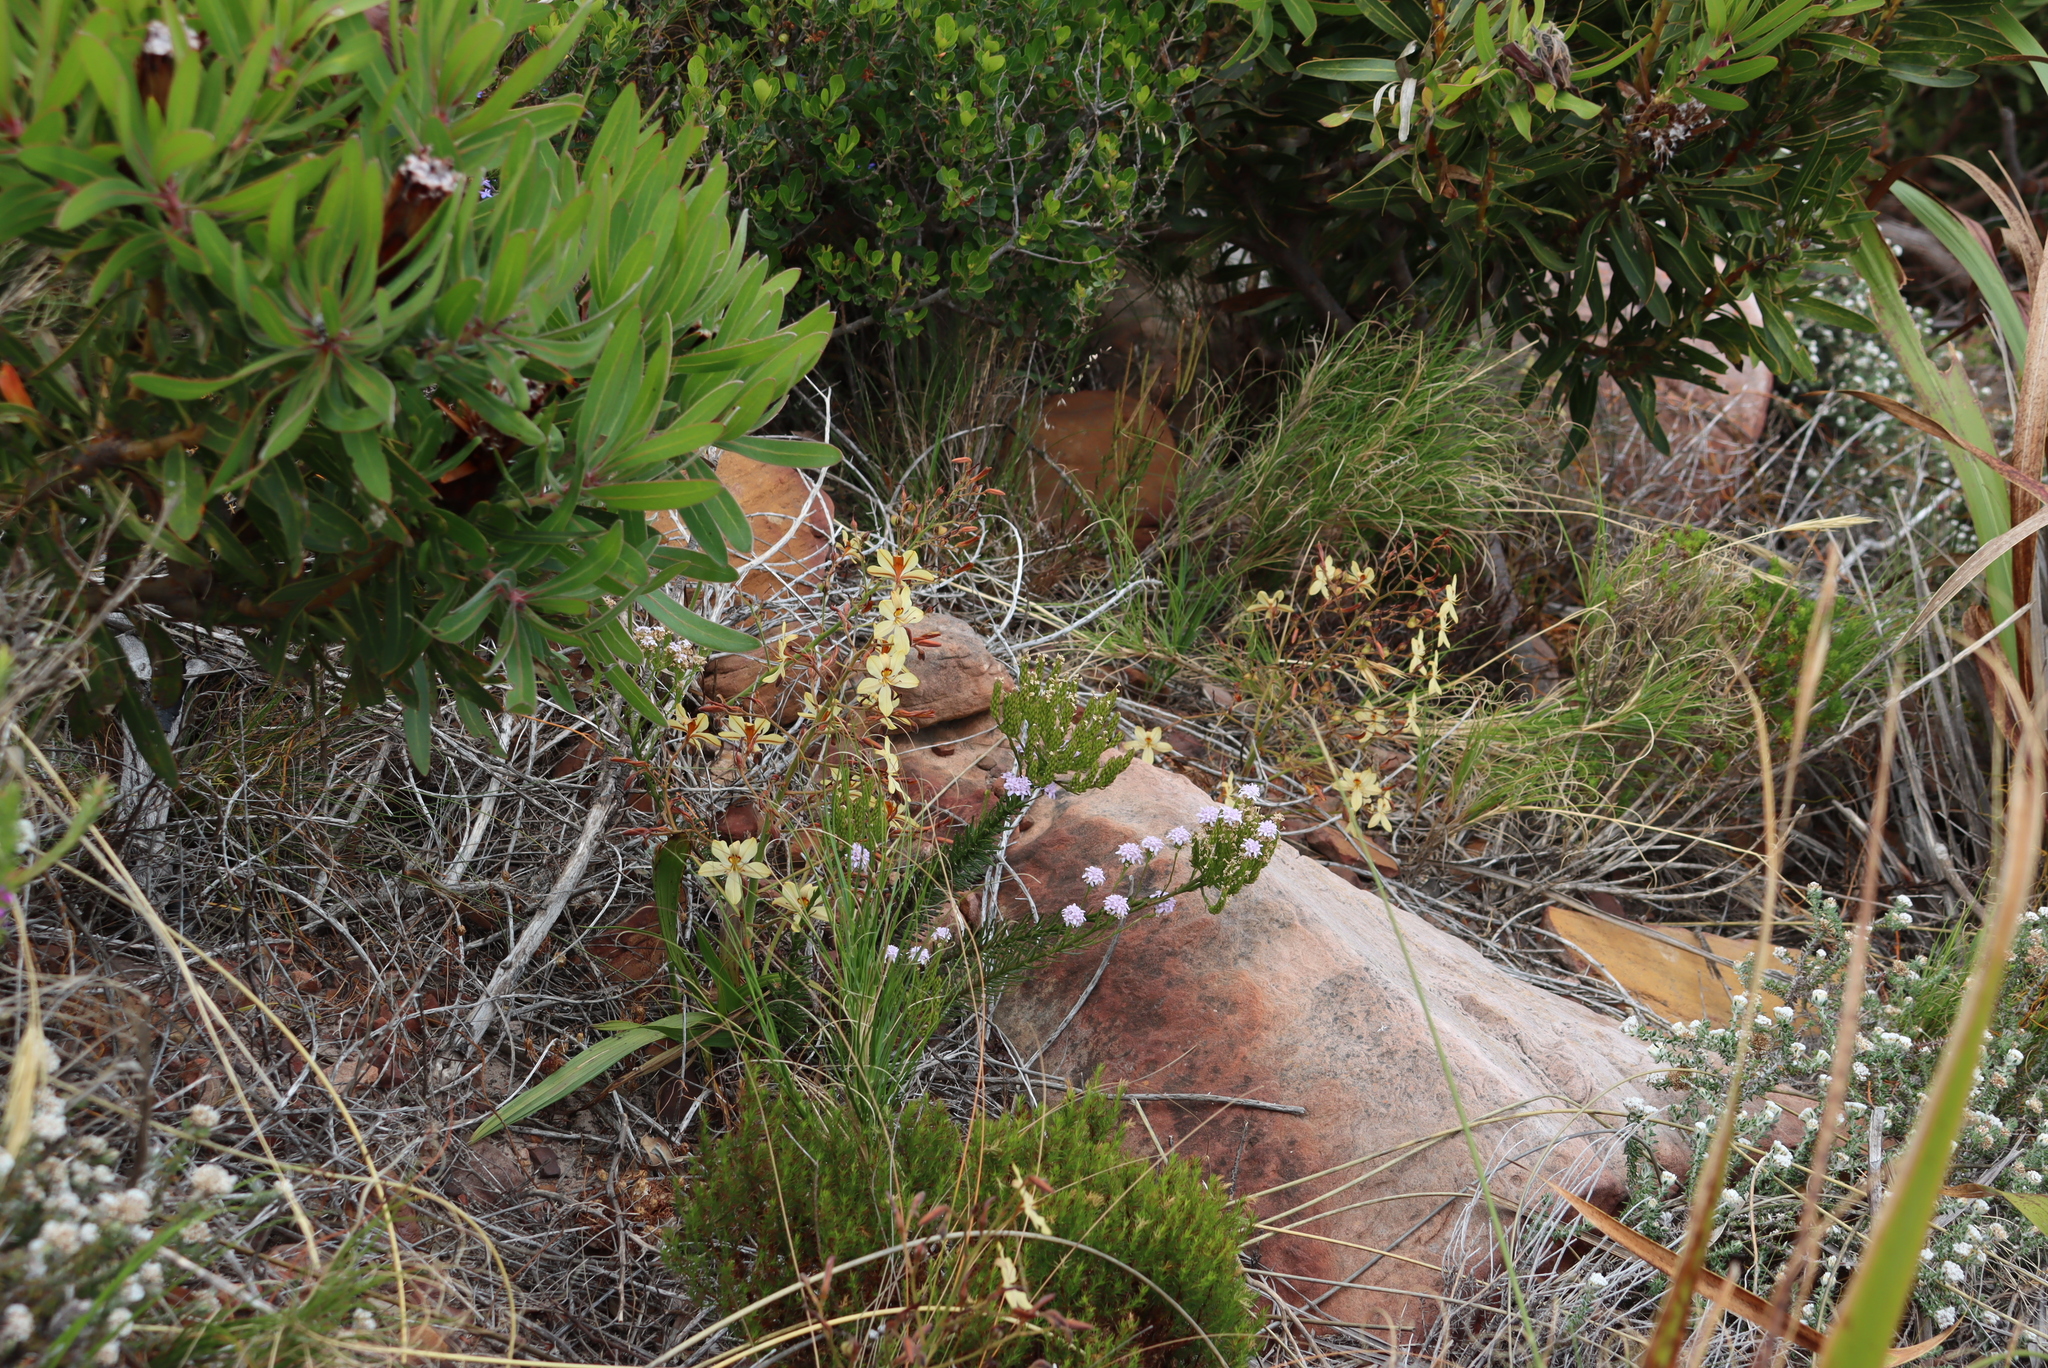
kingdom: Plantae
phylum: Tracheophyta
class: Liliopsida
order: Commelinales
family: Haemodoraceae
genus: Wachendorfia
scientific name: Wachendorfia paniculata
